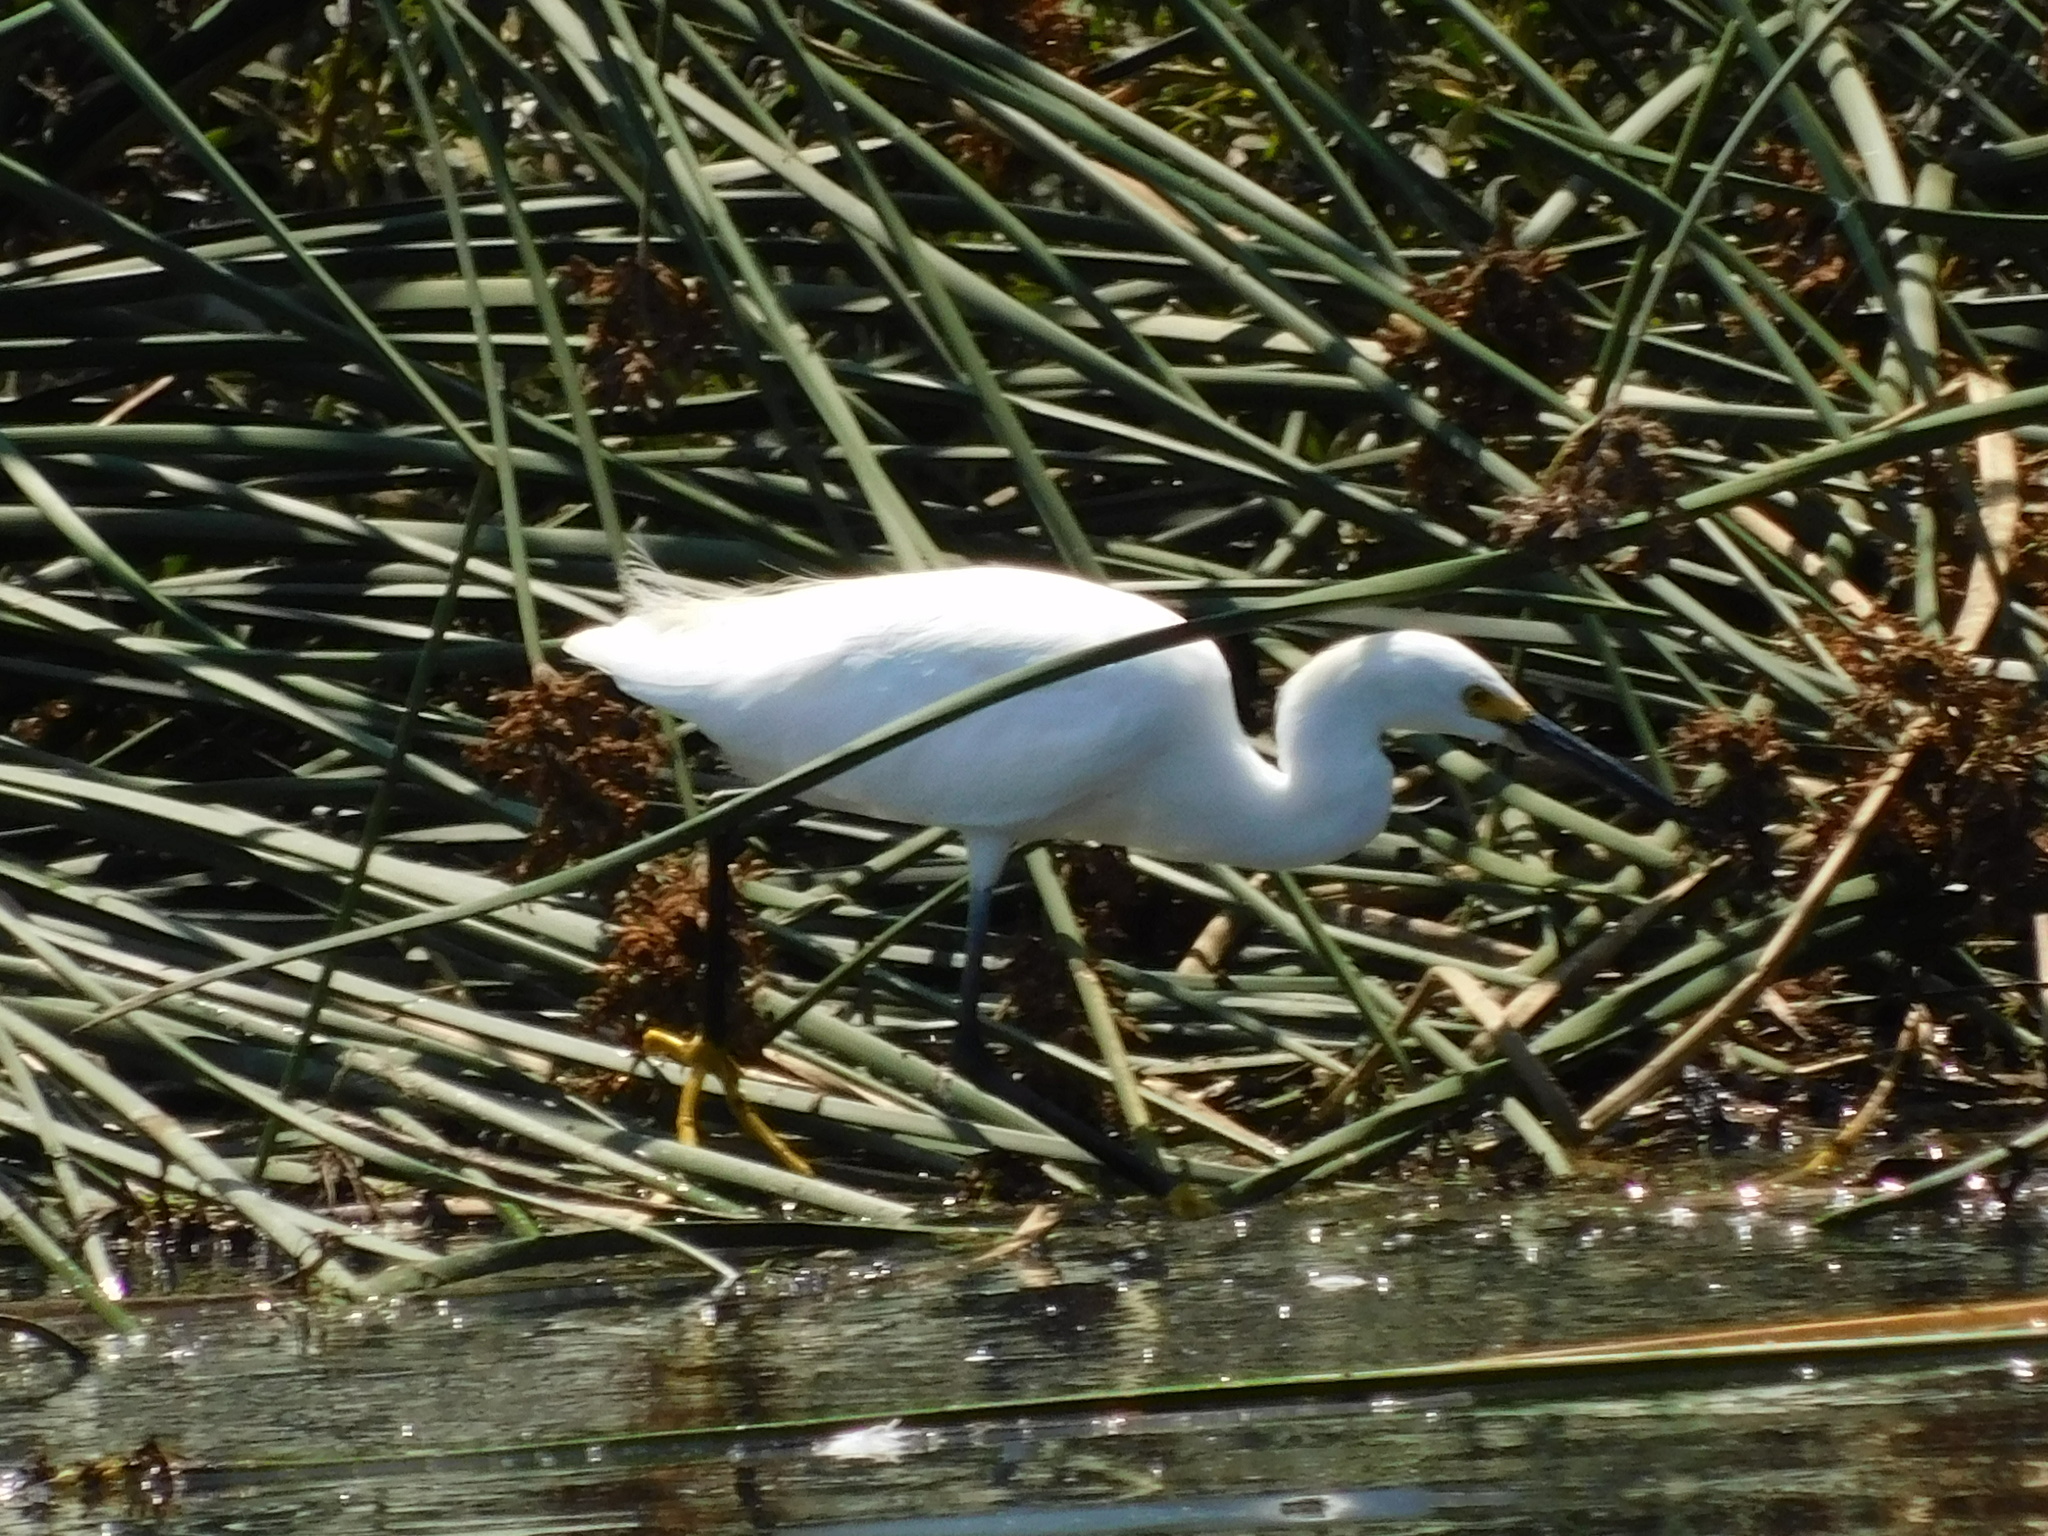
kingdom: Animalia
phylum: Chordata
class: Aves
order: Pelecaniformes
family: Ardeidae
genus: Egretta
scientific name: Egretta thula
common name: Snowy egret
